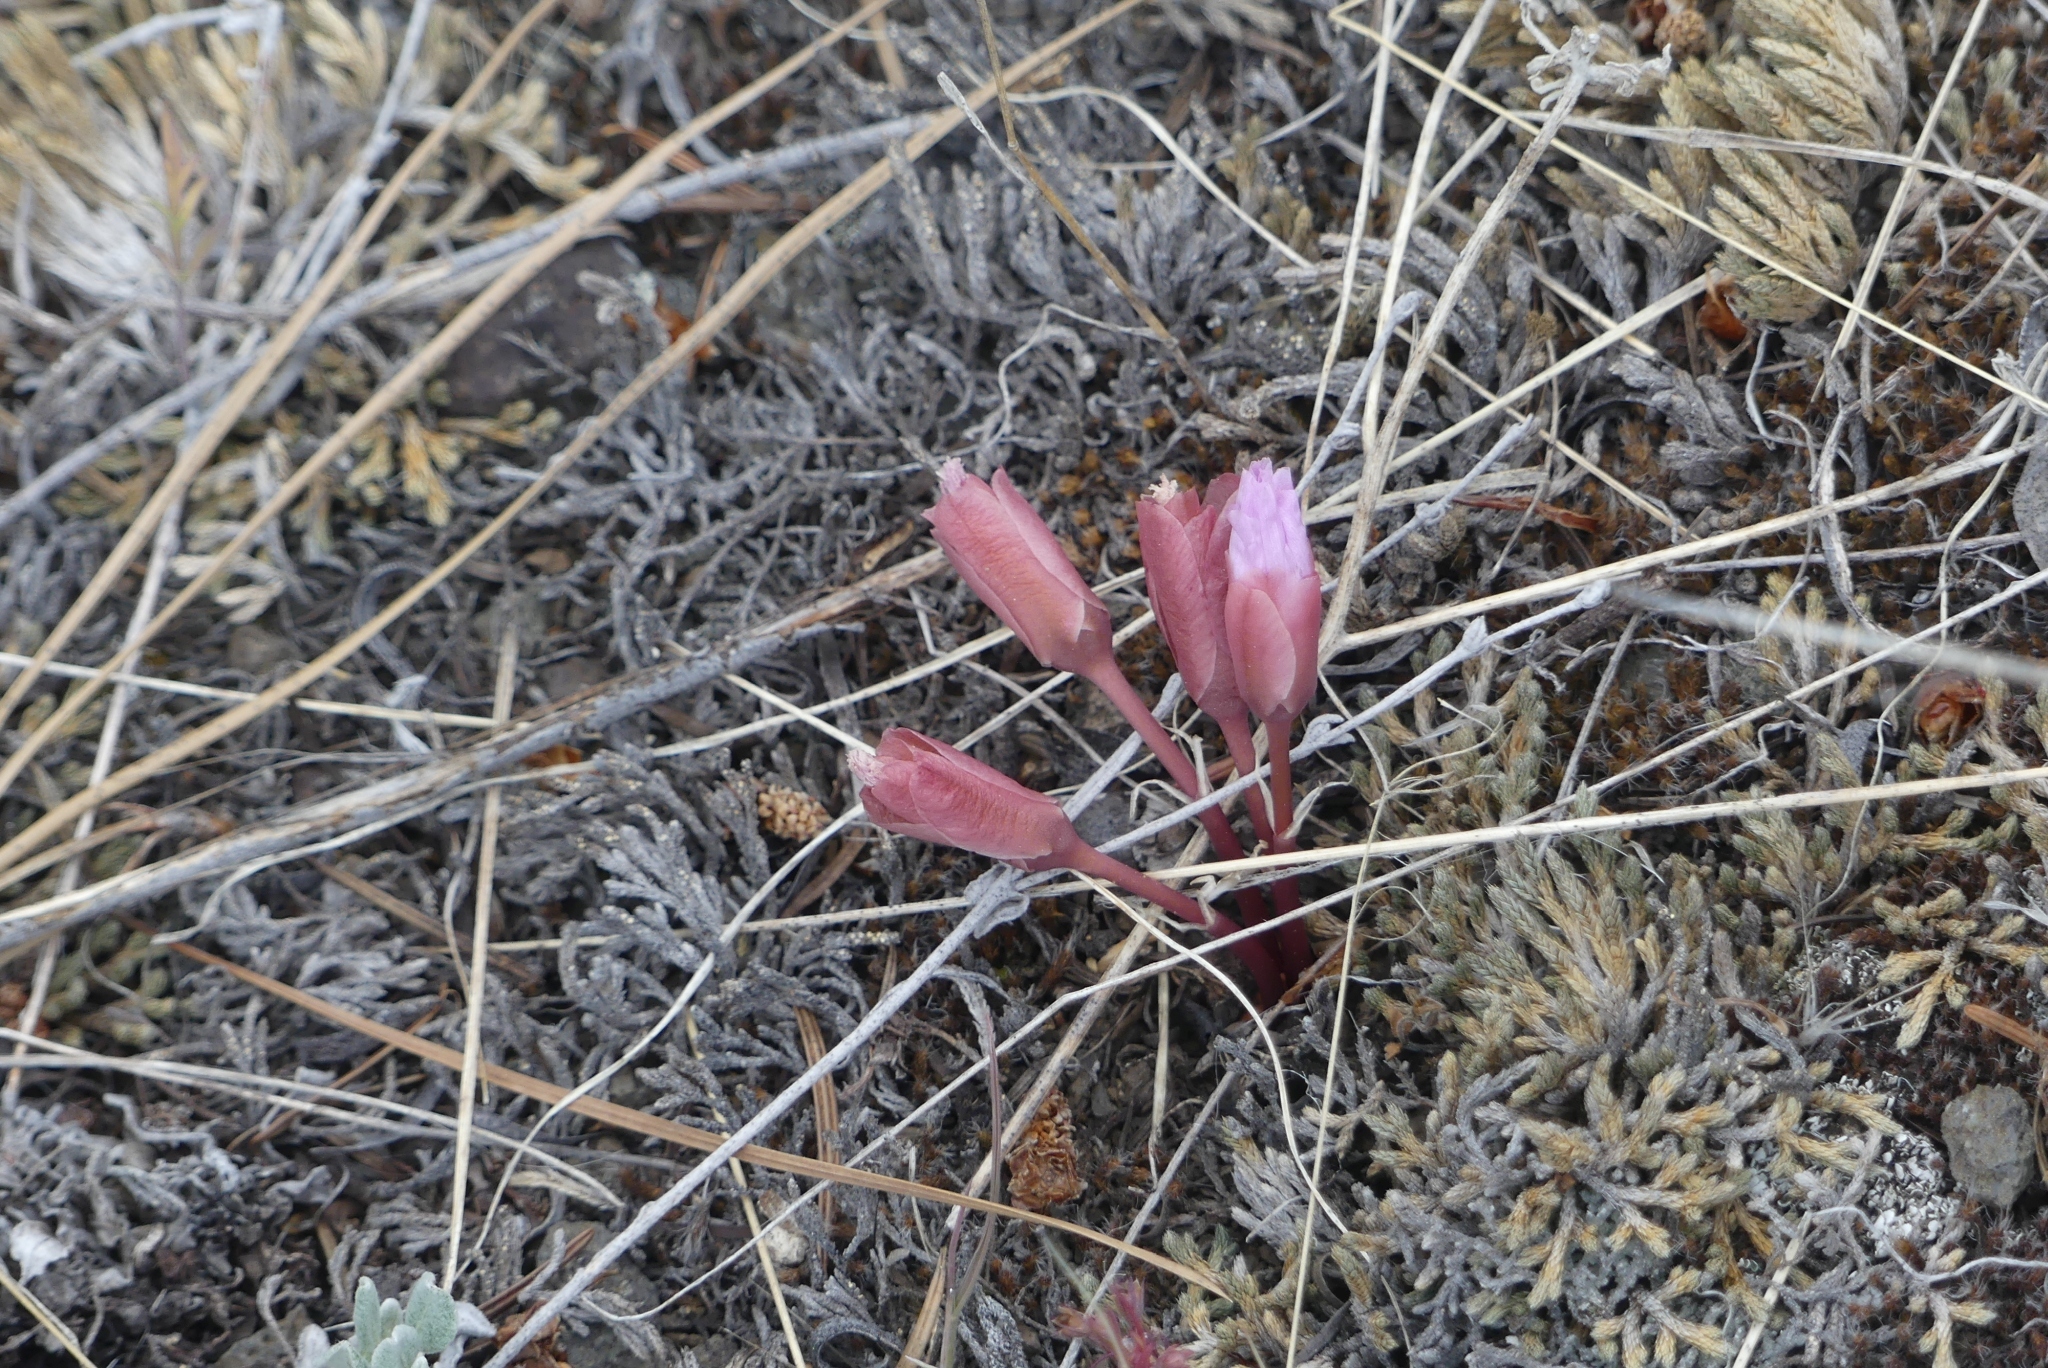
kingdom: Plantae
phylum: Tracheophyta
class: Magnoliopsida
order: Caryophyllales
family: Montiaceae
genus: Lewisia
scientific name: Lewisia rediviva
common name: Bitter-root
